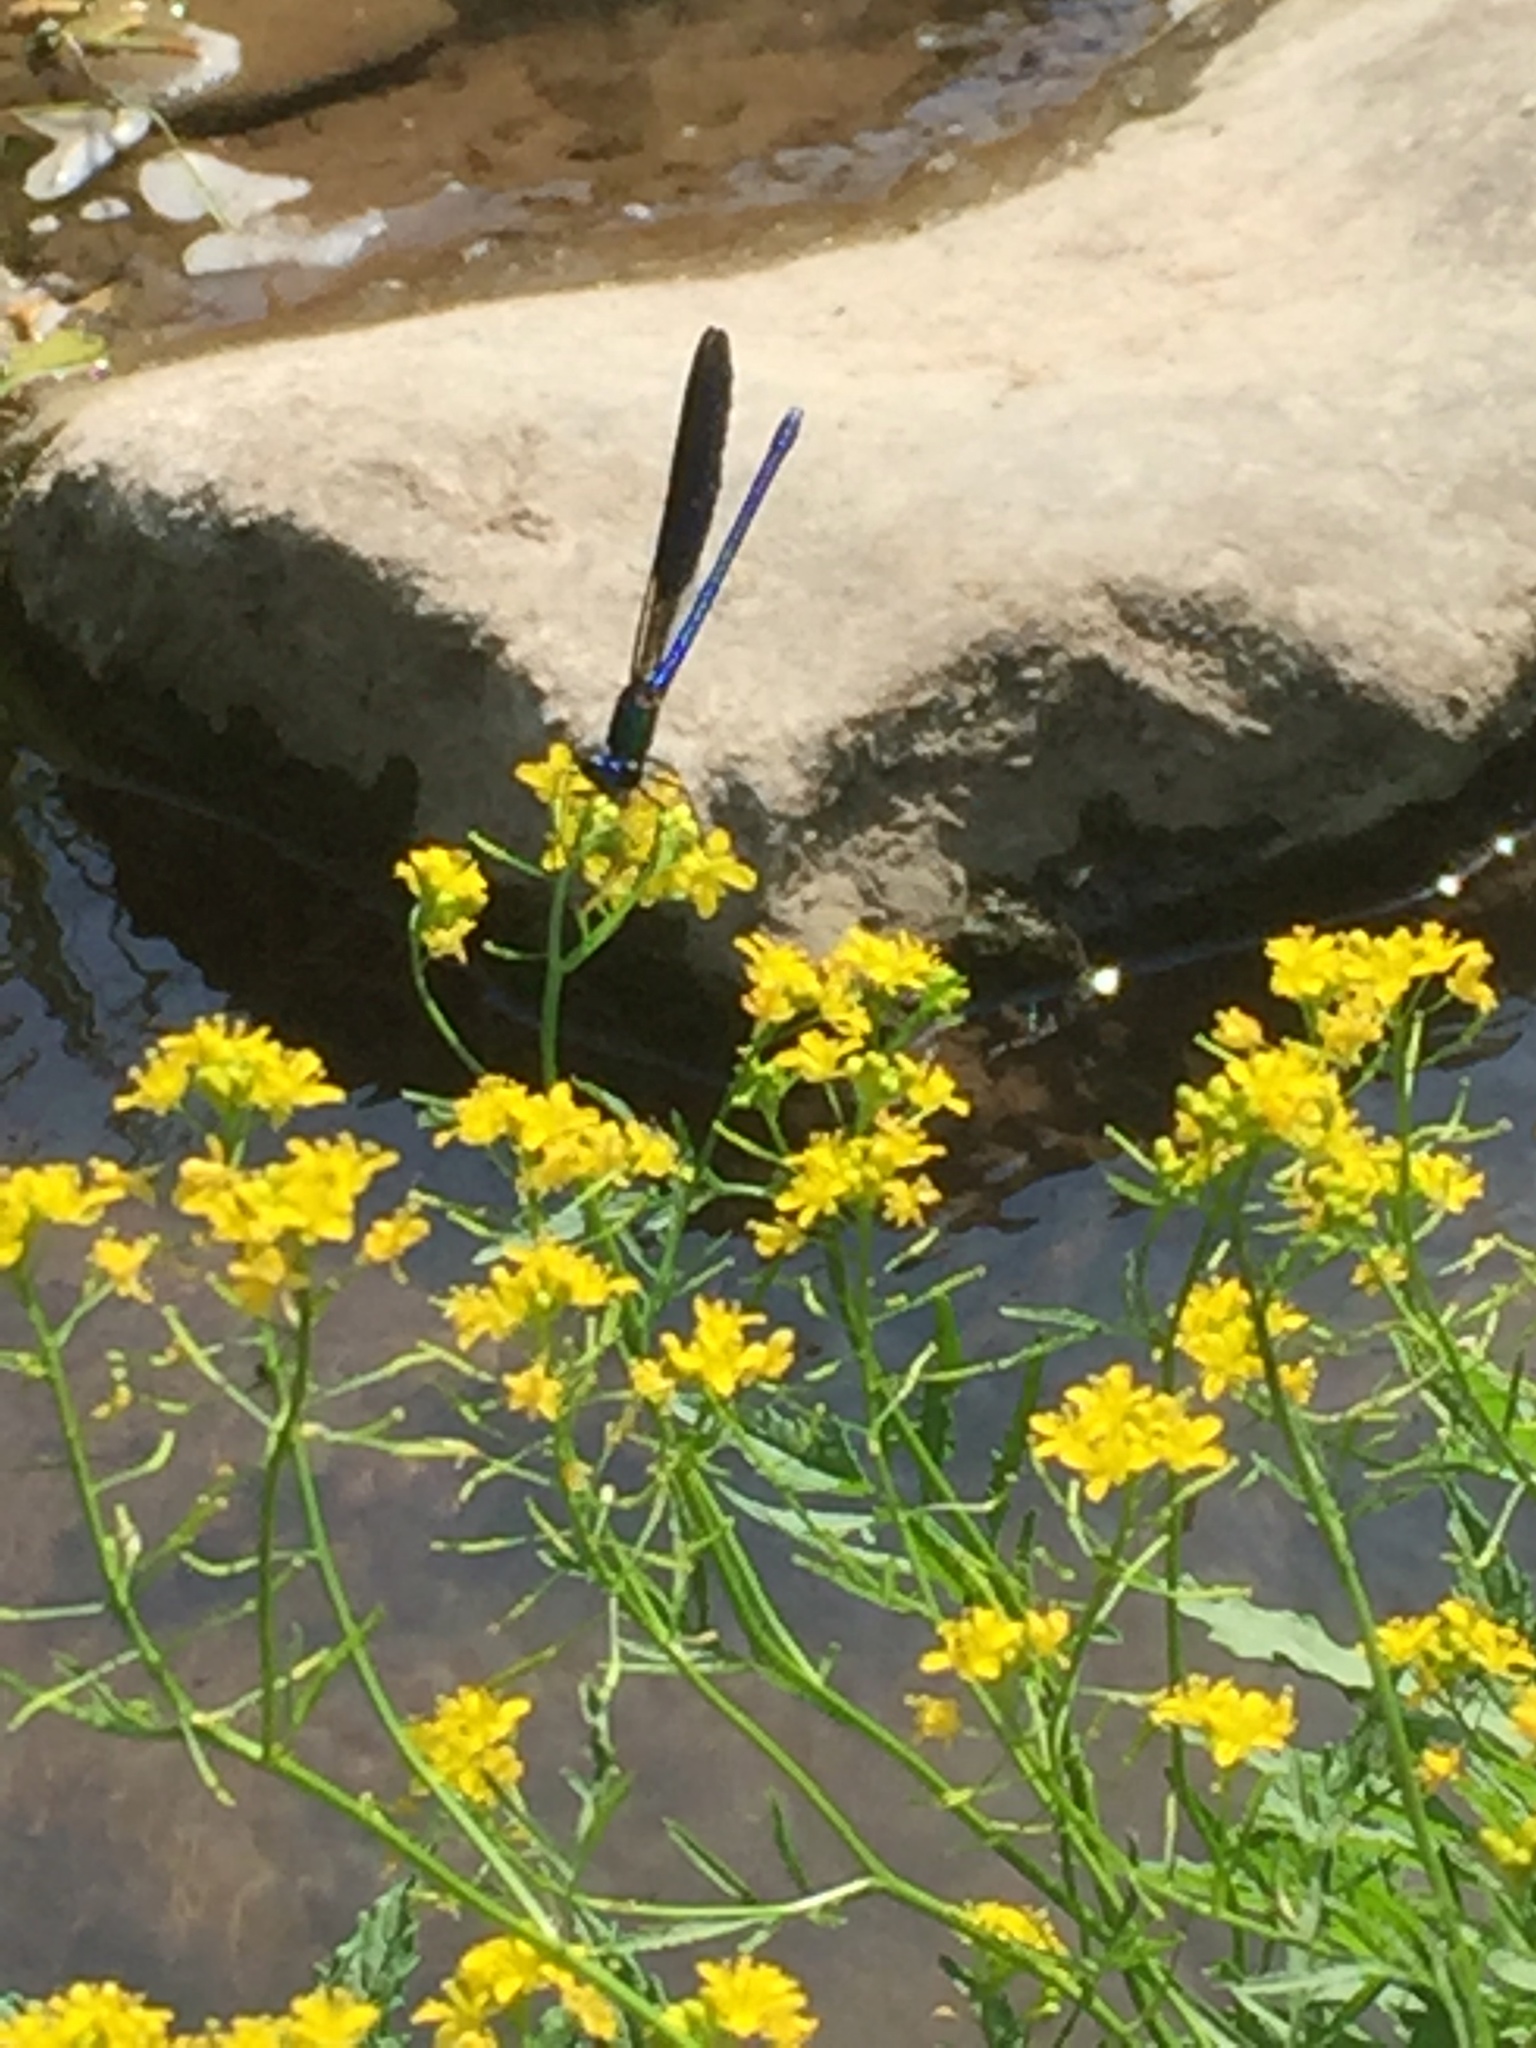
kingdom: Animalia
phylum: Arthropoda
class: Insecta
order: Odonata
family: Calopterygidae
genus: Calopteryx
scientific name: Calopteryx splendens
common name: Banded demoiselle
